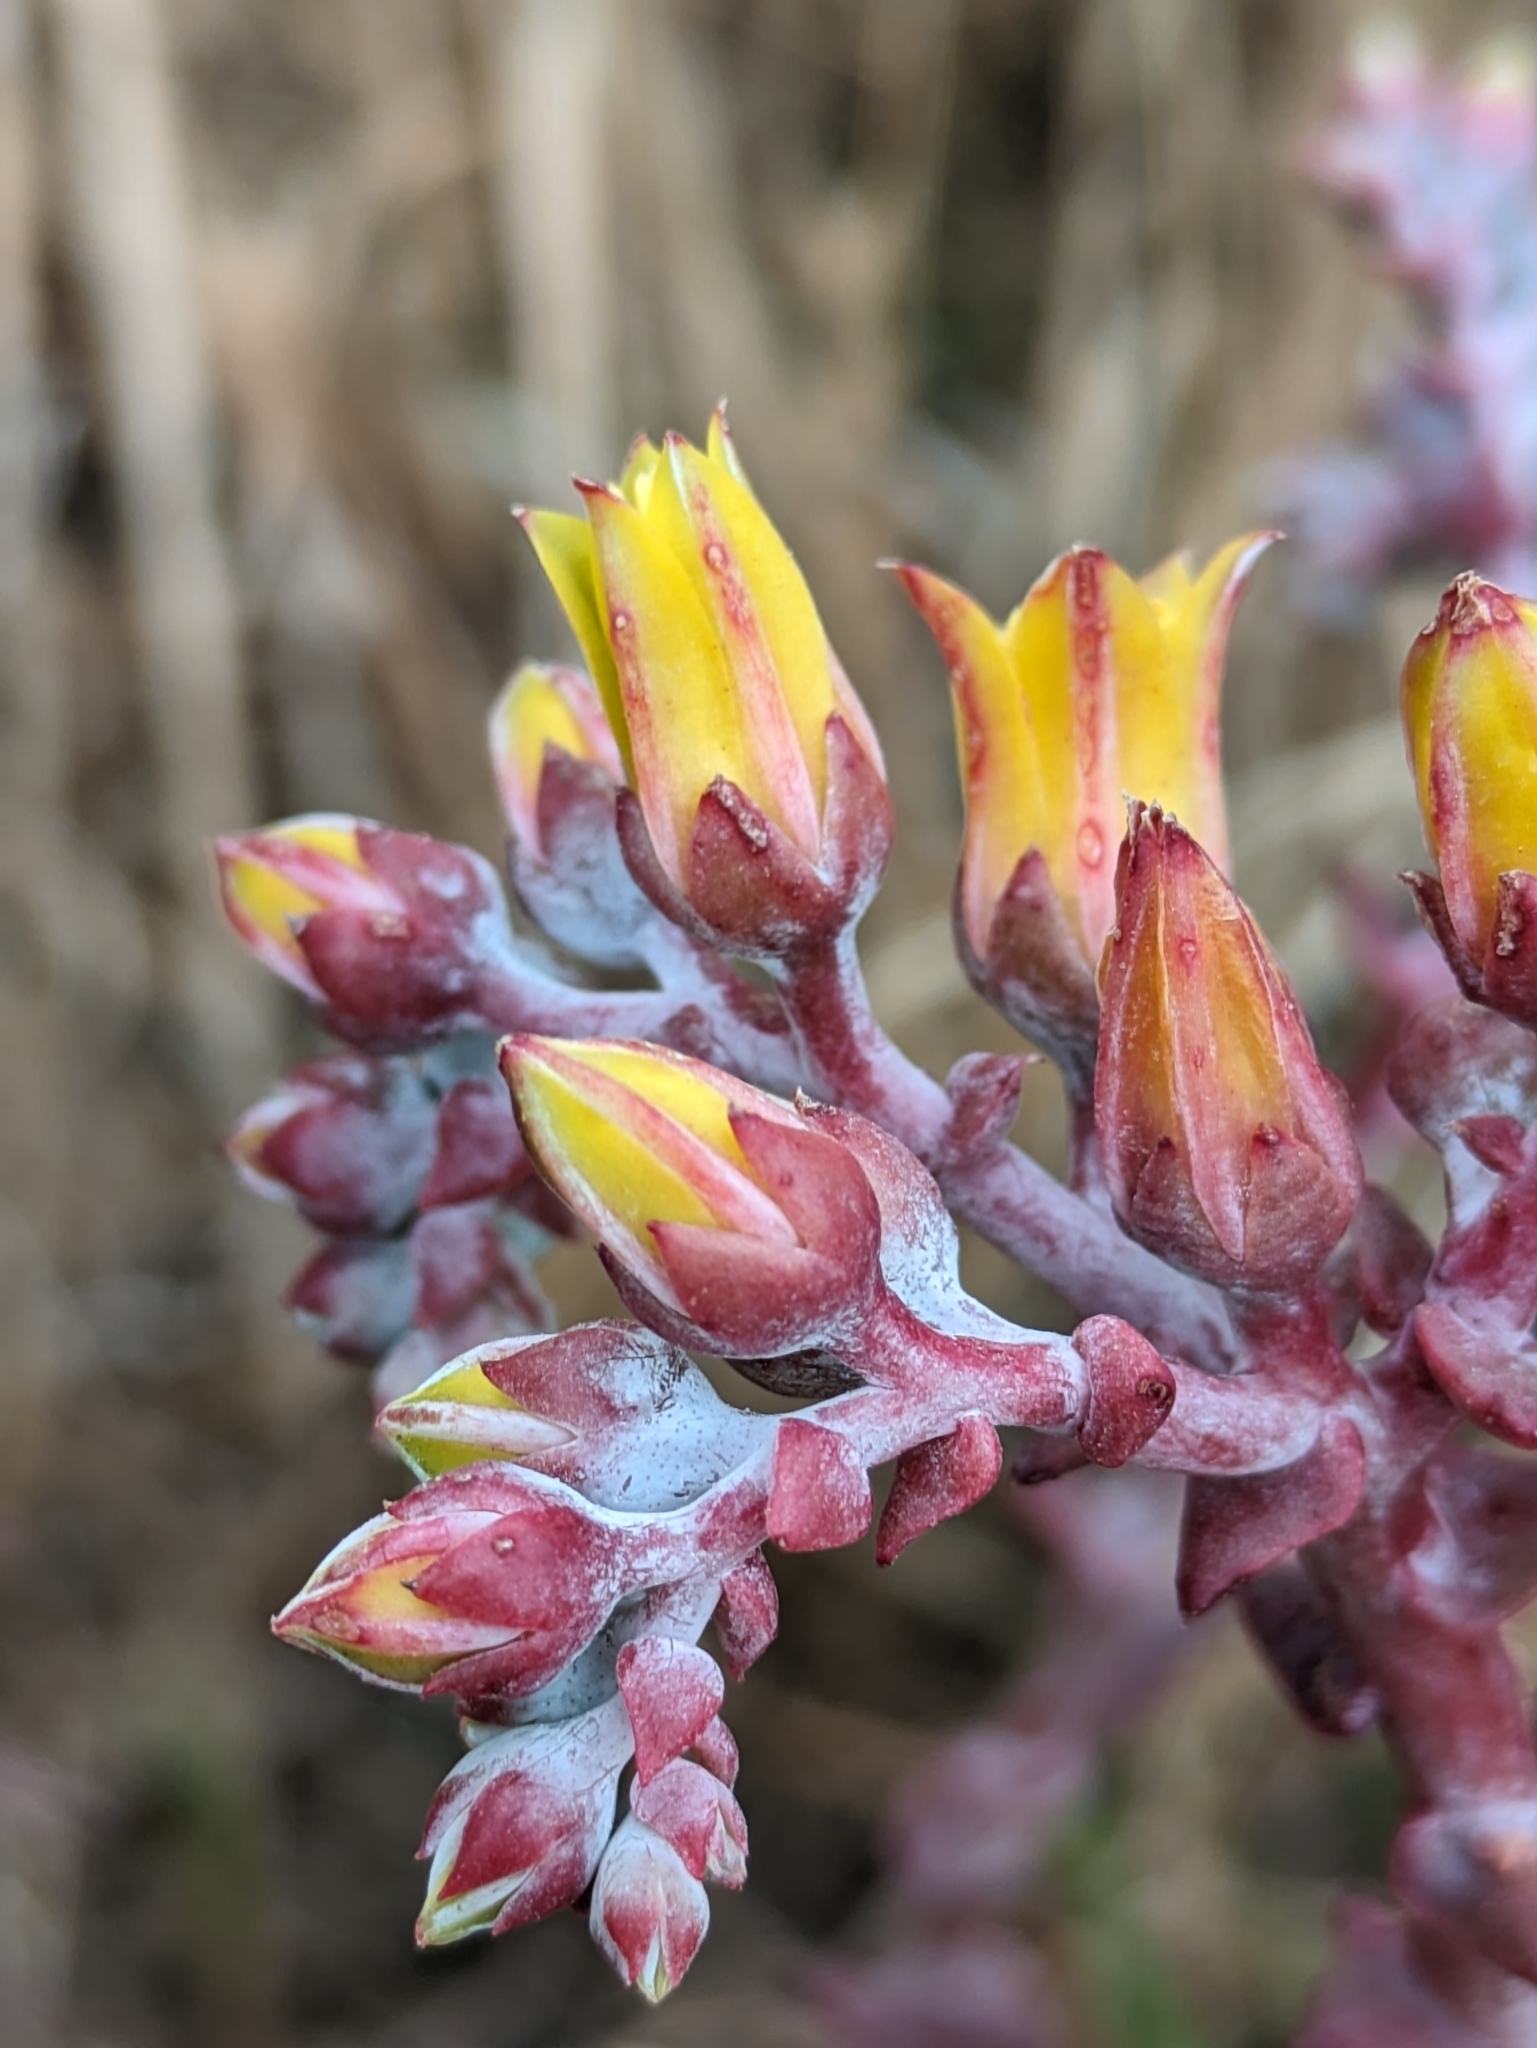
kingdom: Plantae
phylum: Tracheophyta
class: Magnoliopsida
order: Saxifragales
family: Crassulaceae
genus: Dudleya
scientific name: Dudleya caespitosa
